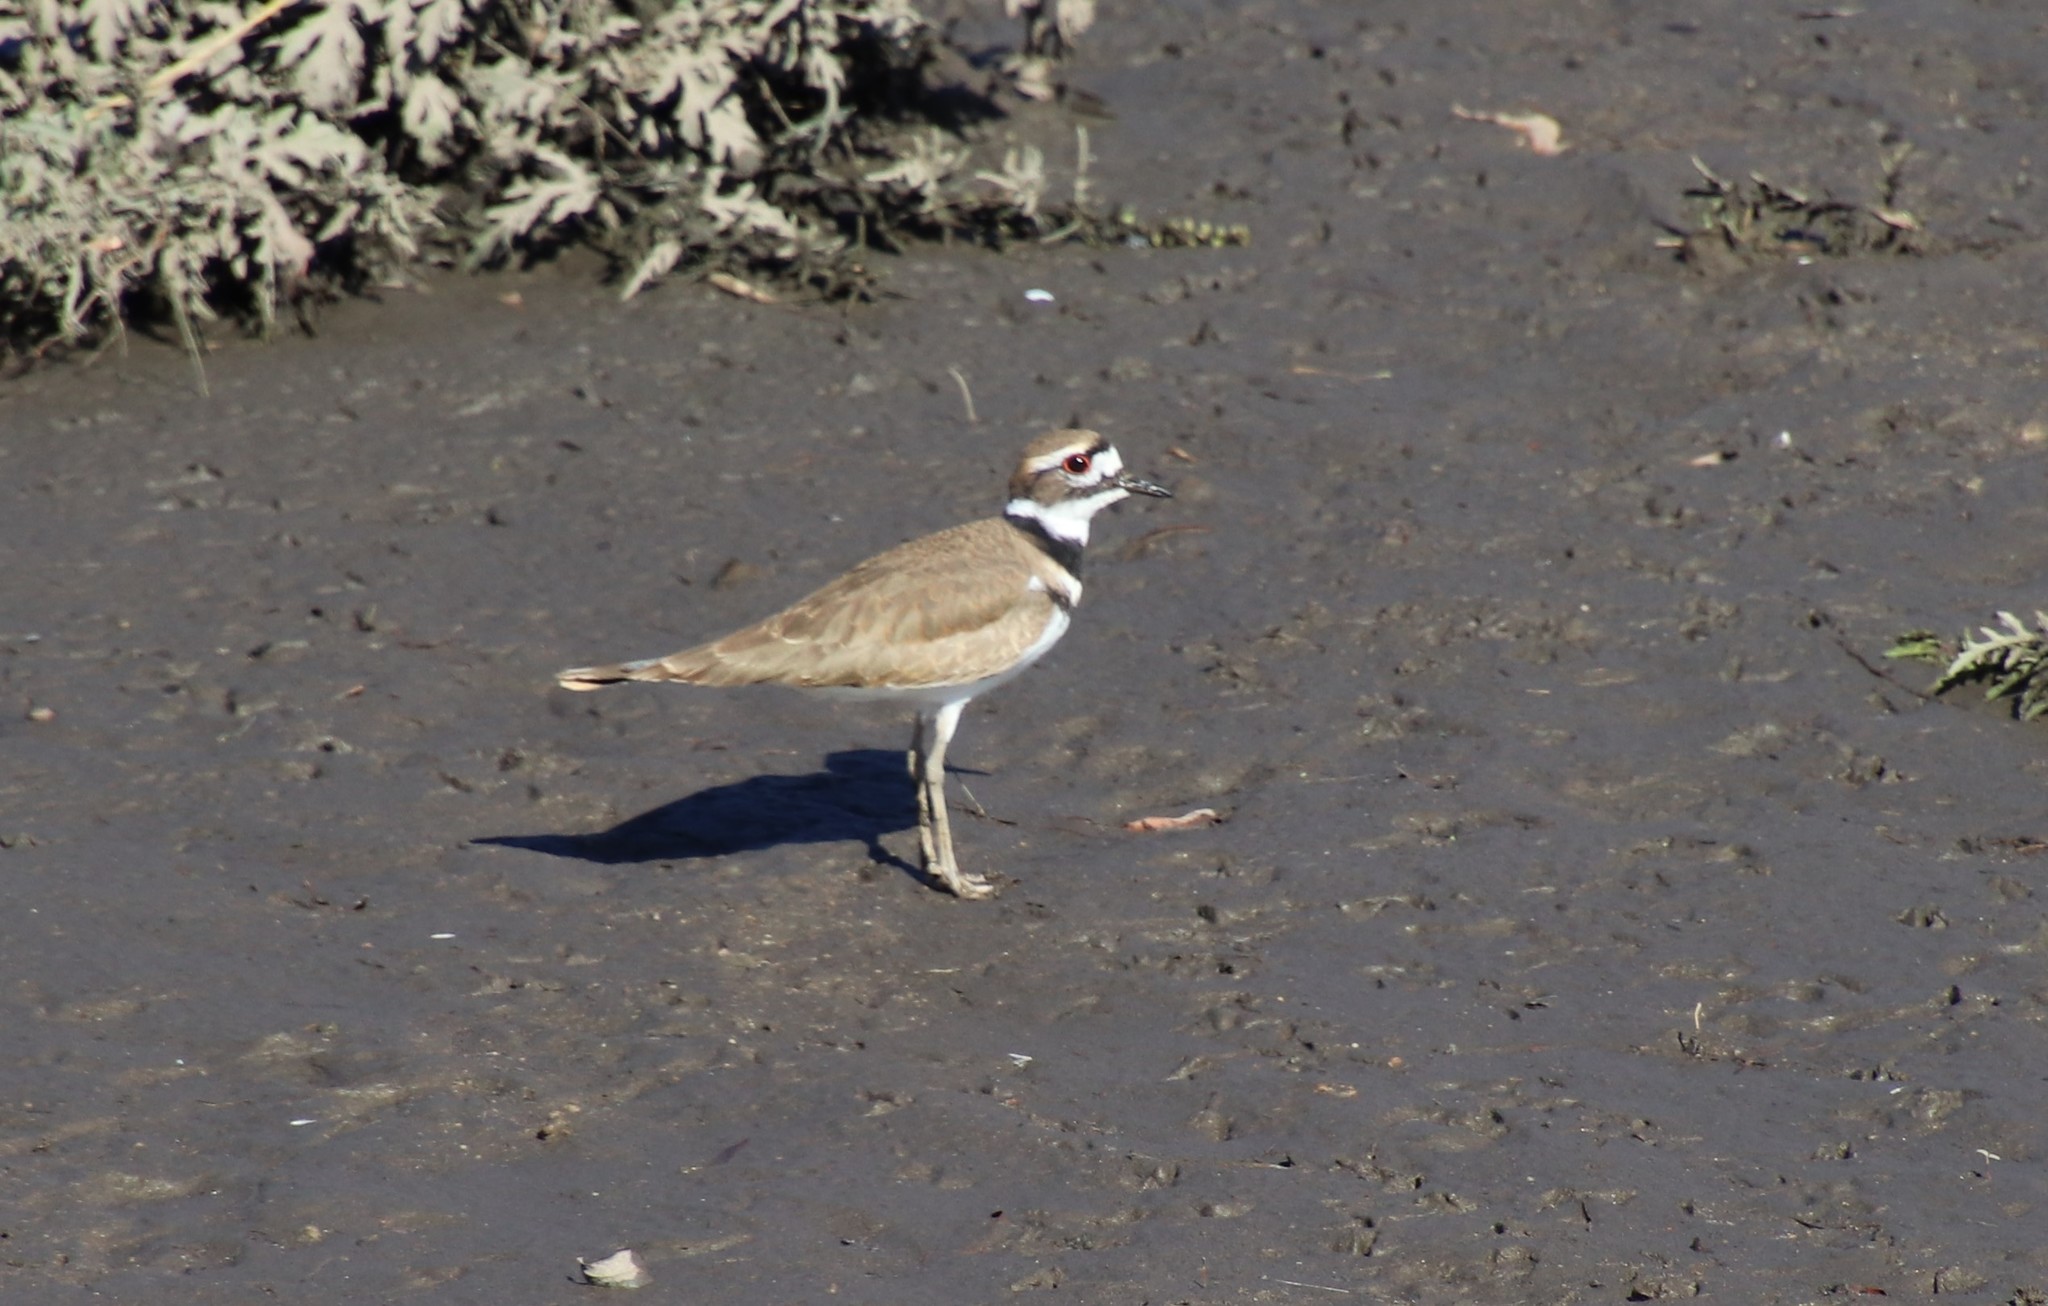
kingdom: Animalia
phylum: Chordata
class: Aves
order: Charadriiformes
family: Charadriidae
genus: Charadrius
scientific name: Charadrius vociferus
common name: Killdeer
